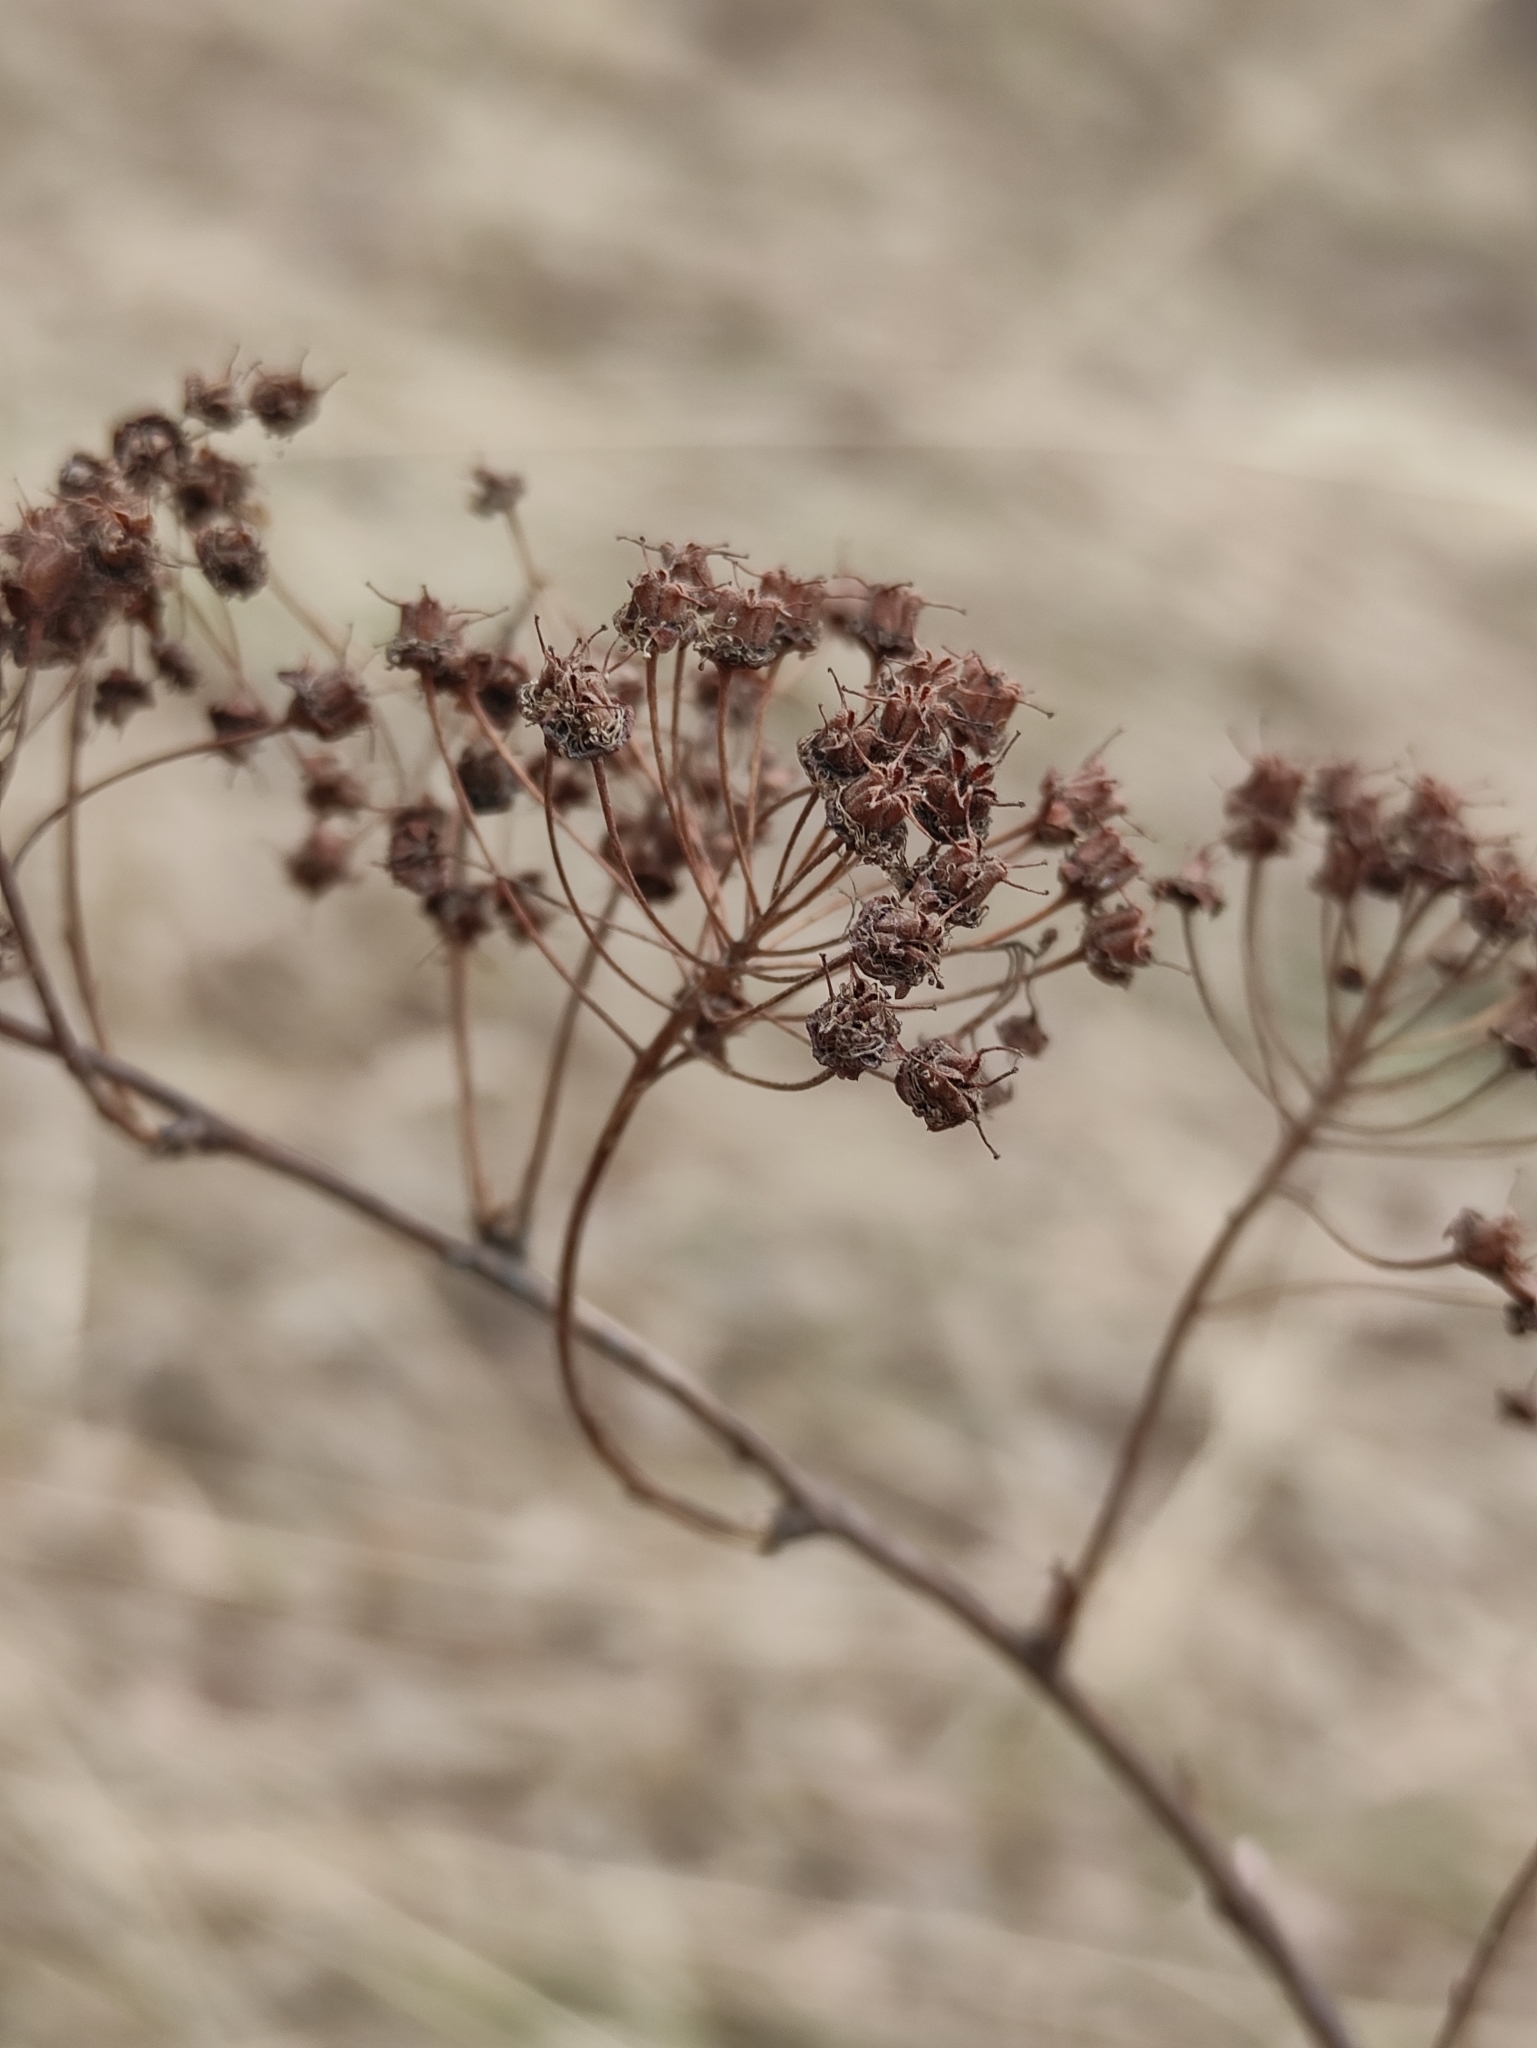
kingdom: Plantae
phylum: Tracheophyta
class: Magnoliopsida
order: Rosales
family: Rosaceae
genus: Spiraea
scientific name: Spiraea media
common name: Russian spiraea
